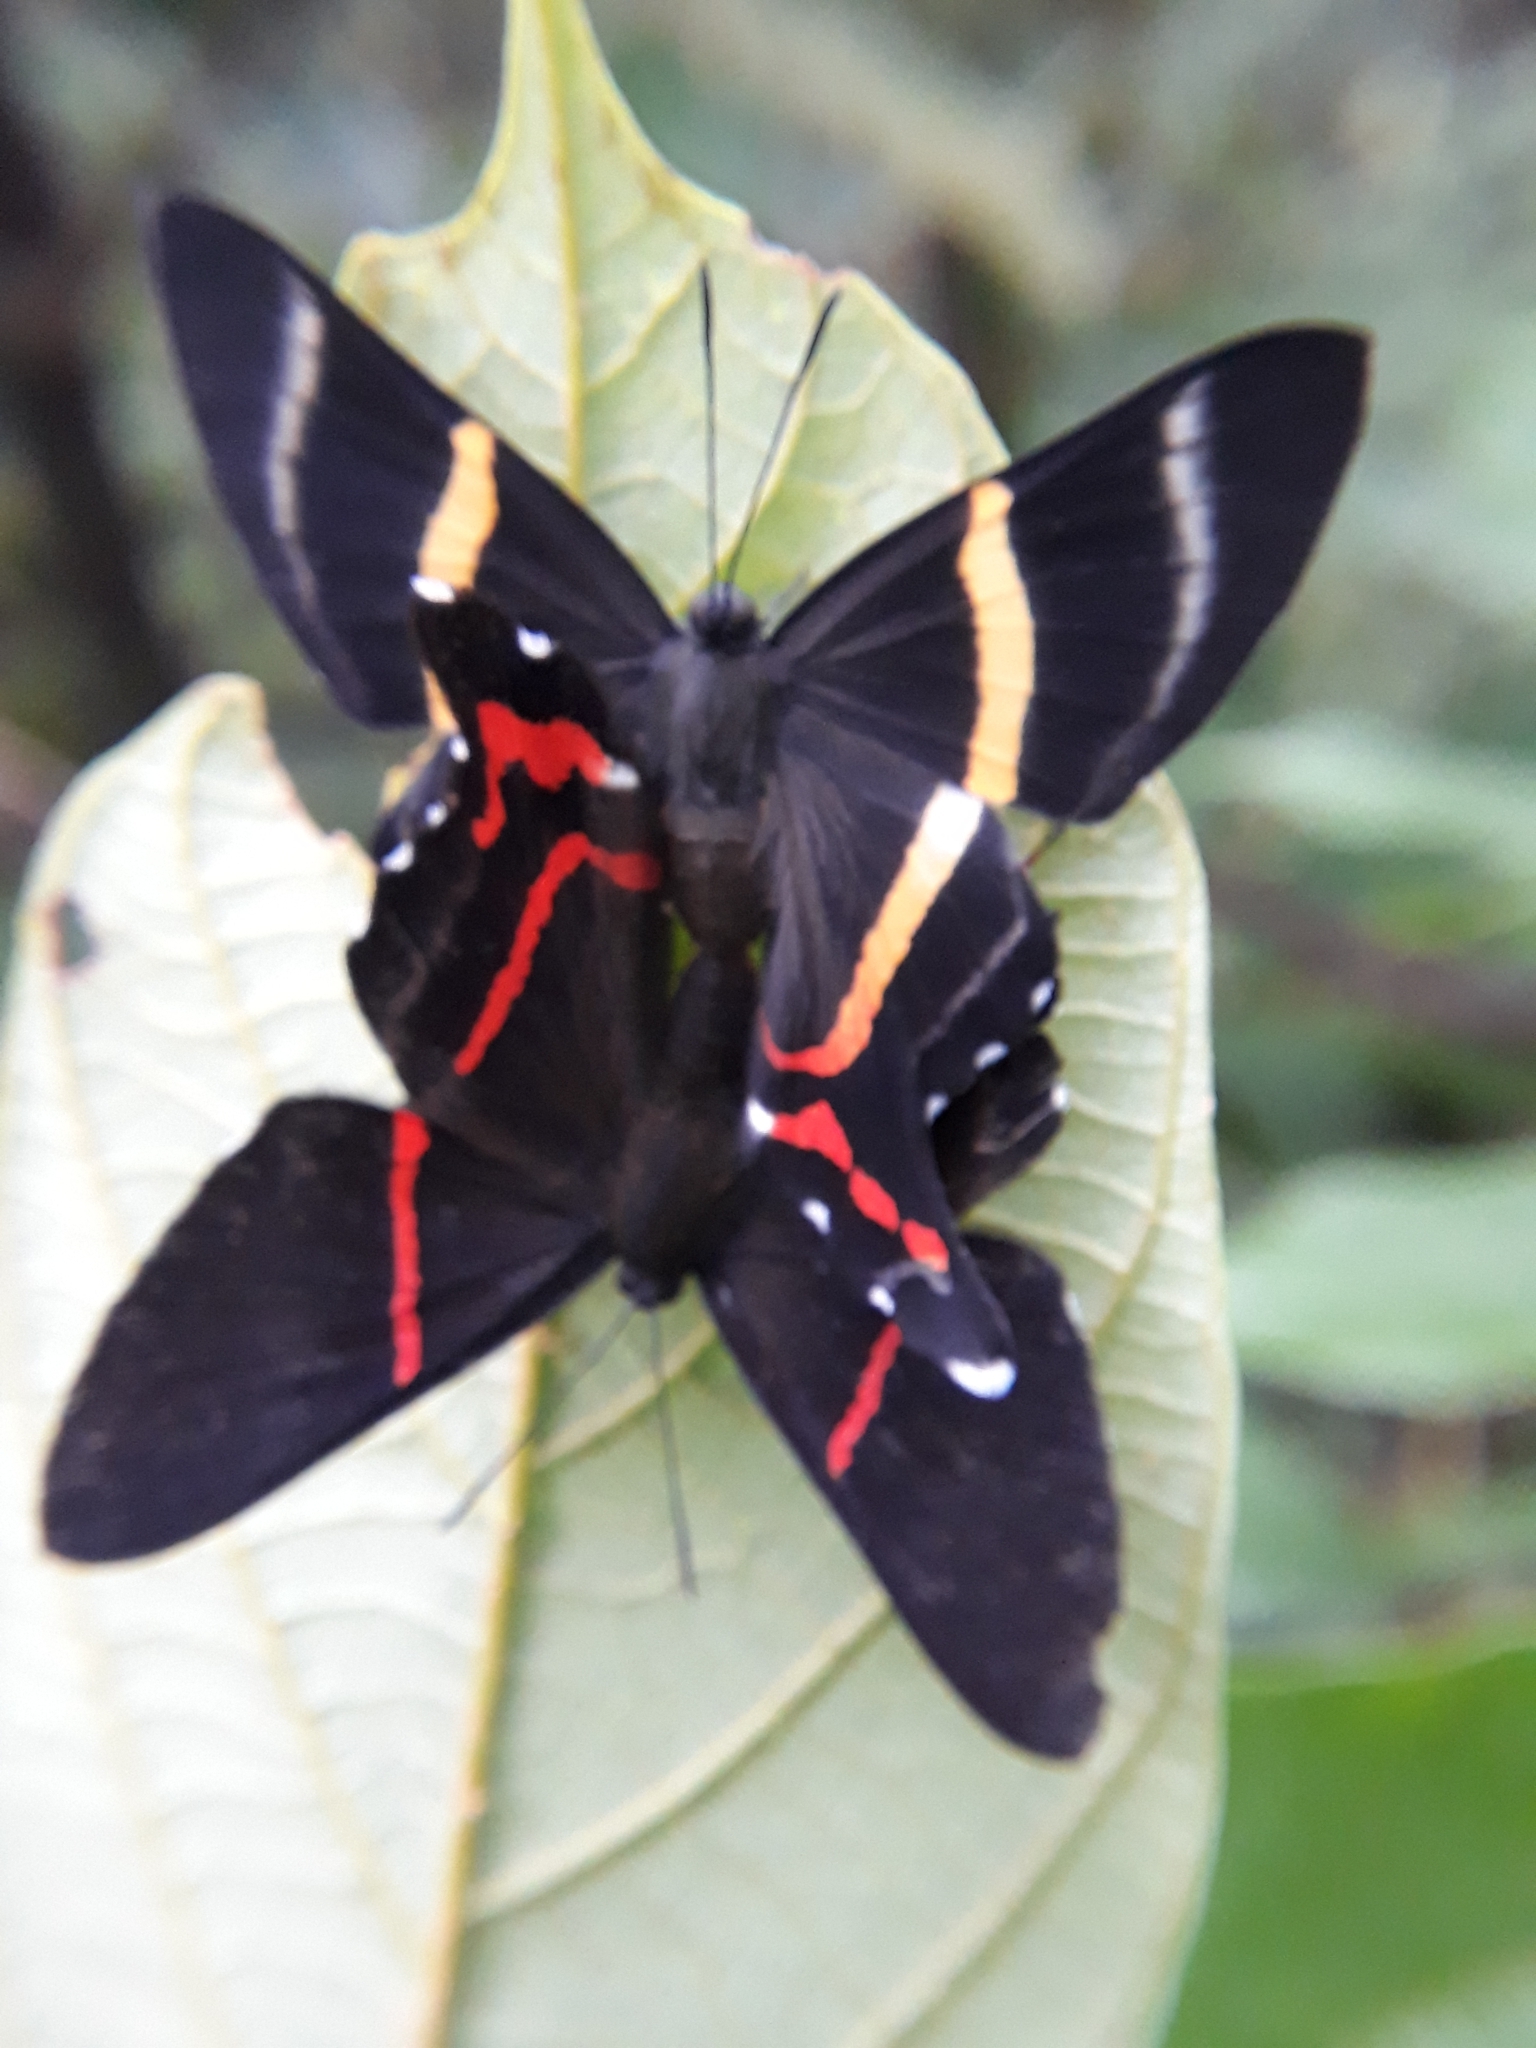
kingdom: Animalia
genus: Ancyluris
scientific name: Ancyluris aulestes
